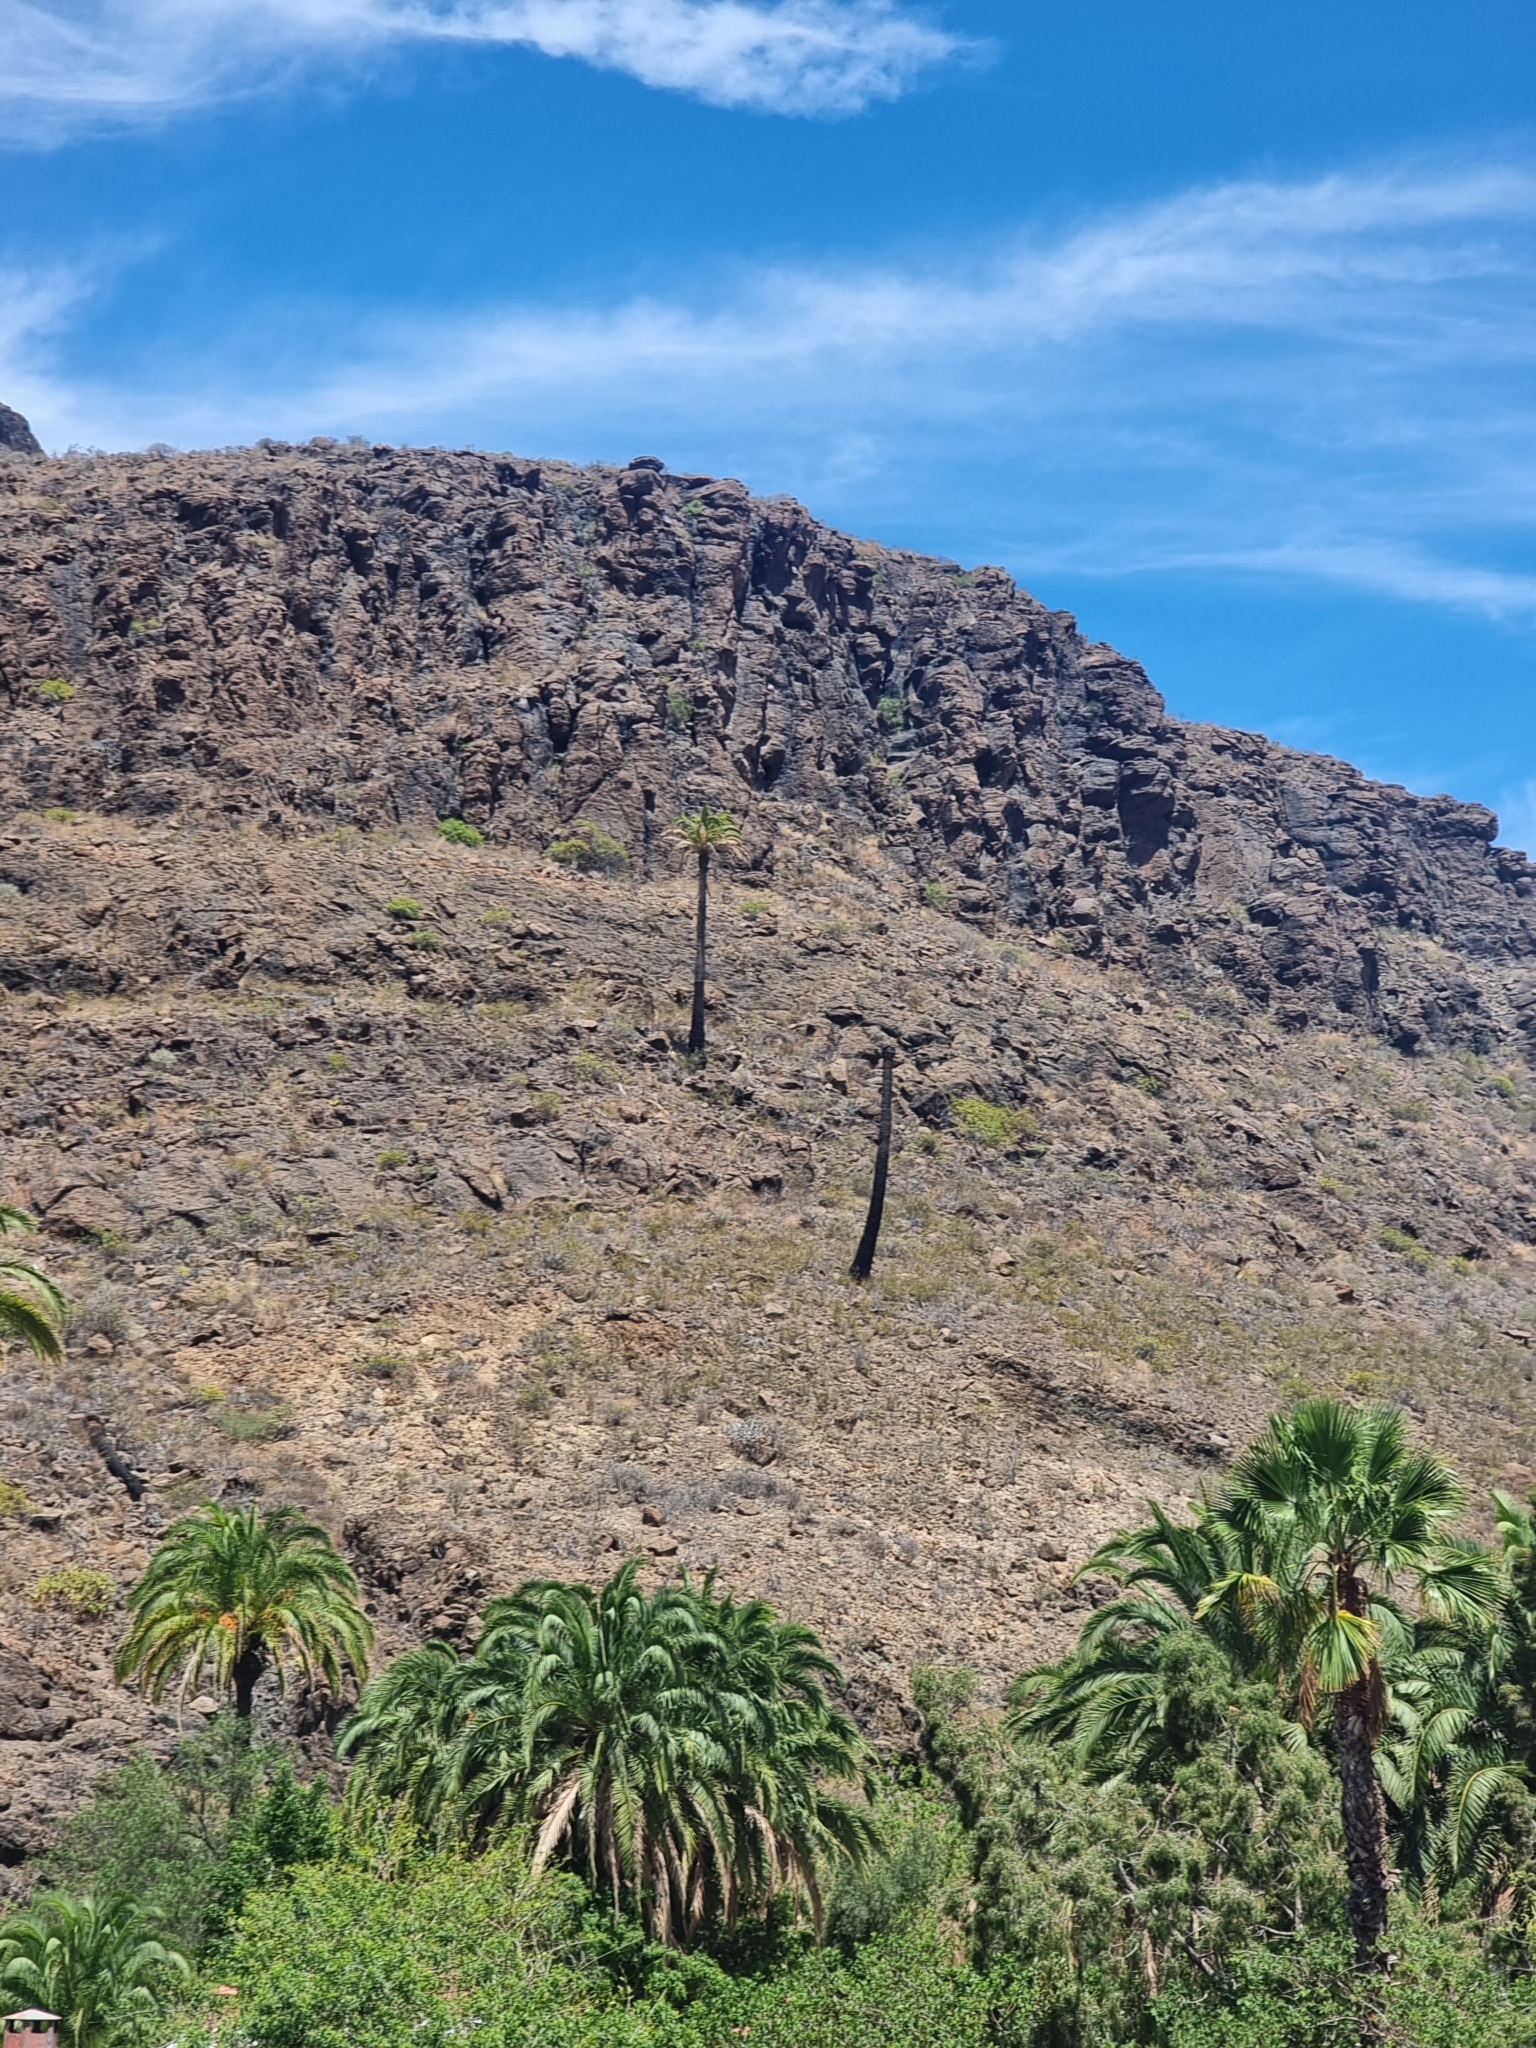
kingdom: Plantae
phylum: Tracheophyta
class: Liliopsida
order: Arecales
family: Arecaceae
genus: Phoenix
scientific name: Phoenix canariensis
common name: Canary island date palm
